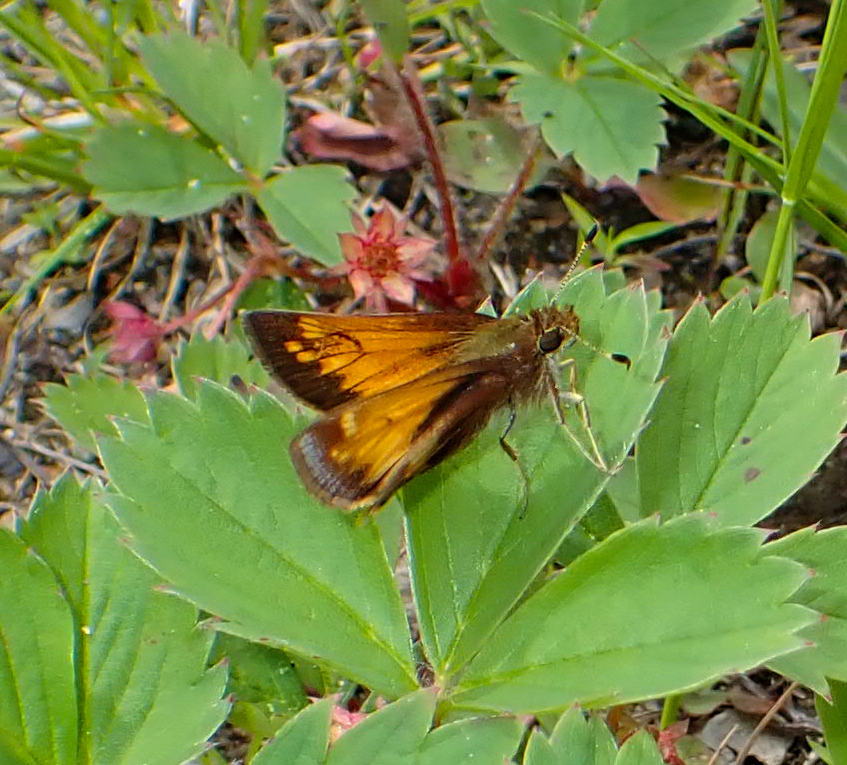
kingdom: Animalia
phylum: Arthropoda
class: Insecta
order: Lepidoptera
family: Hesperiidae
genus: Lon
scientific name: Lon hobomok
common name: Hobomok skipper
